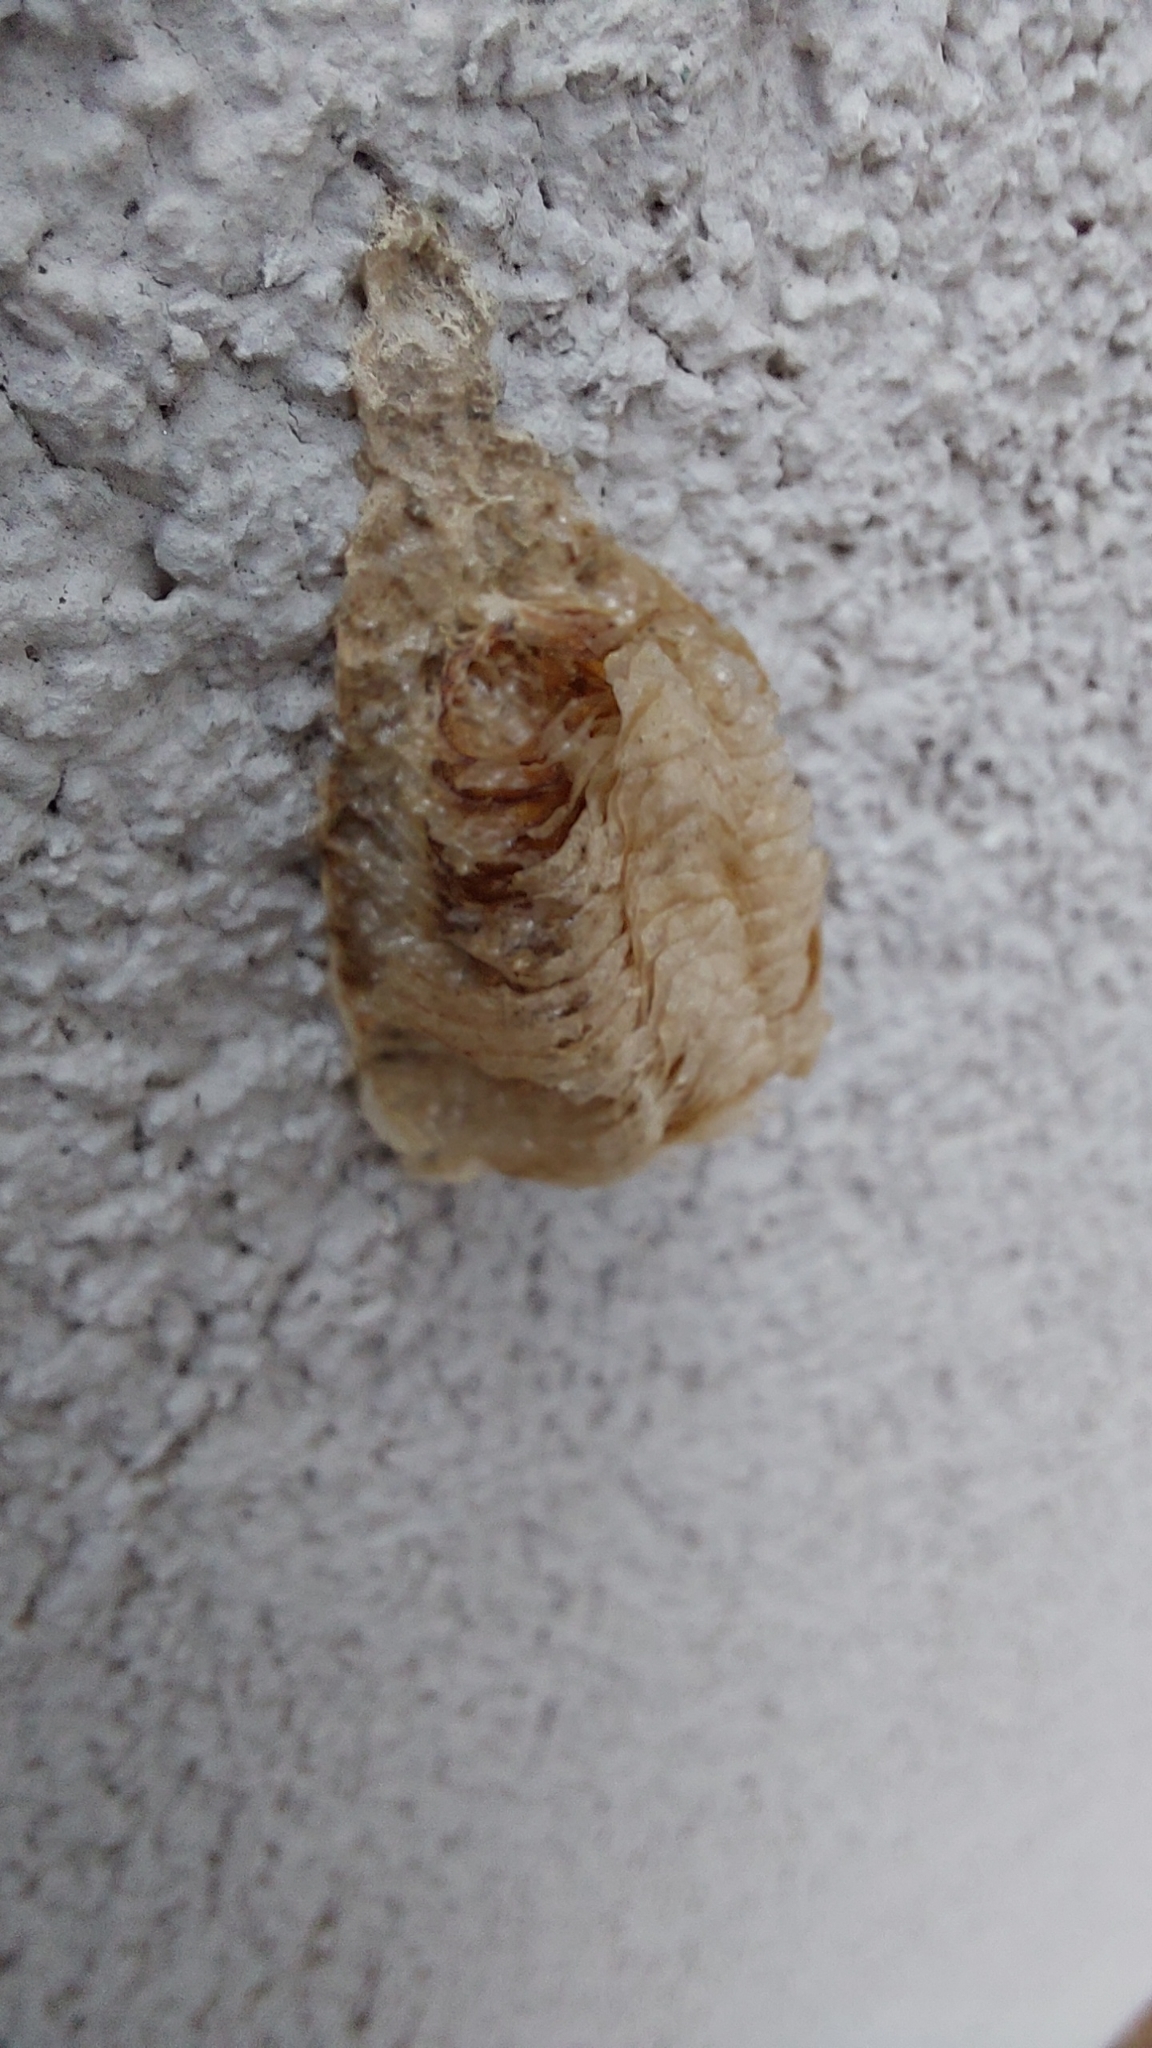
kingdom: Animalia
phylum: Arthropoda
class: Insecta
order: Mantodea
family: Mantidae
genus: Mantis
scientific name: Mantis religiosa
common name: Praying mantis
